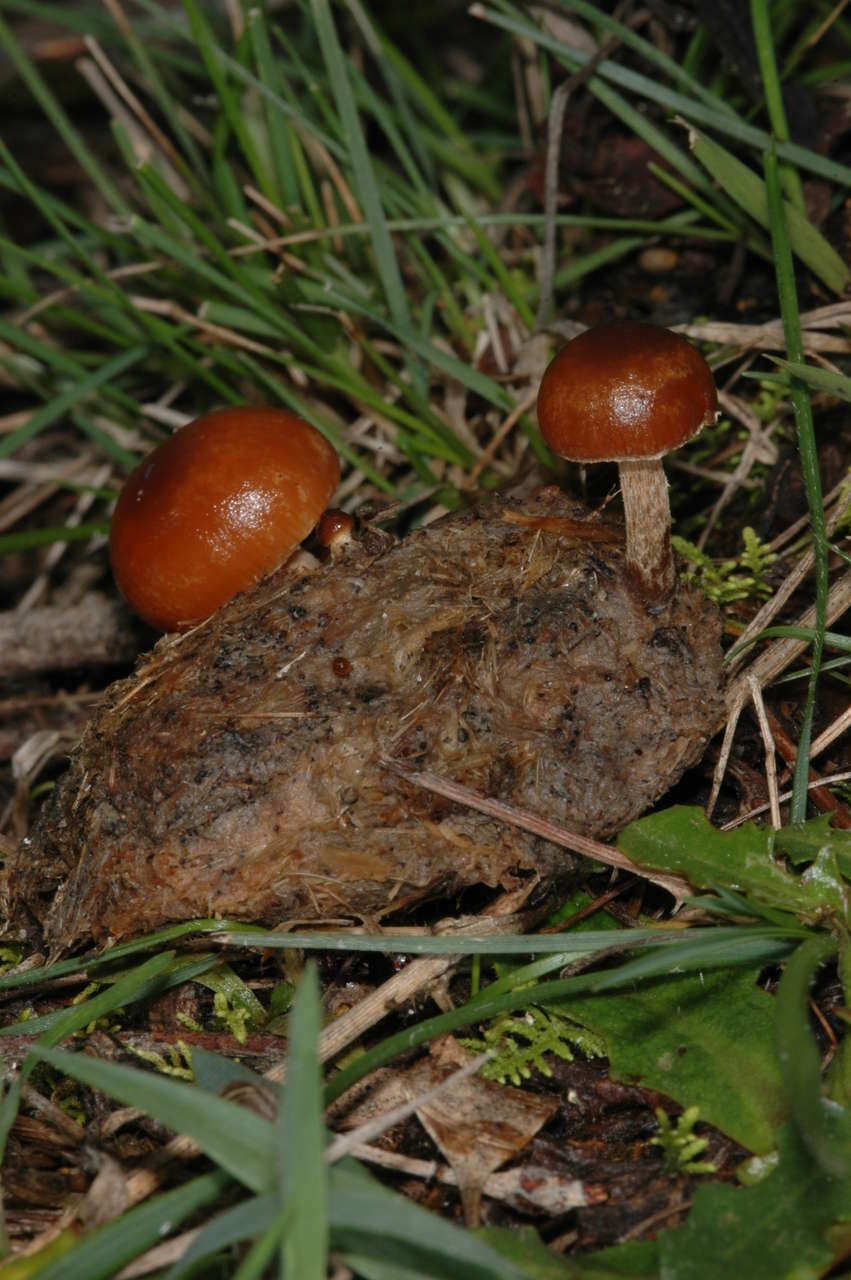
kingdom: Fungi
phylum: Basidiomycota
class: Agaricomycetes
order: Agaricales
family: Strophariaceae
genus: Deconica
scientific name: Deconica coprophila
